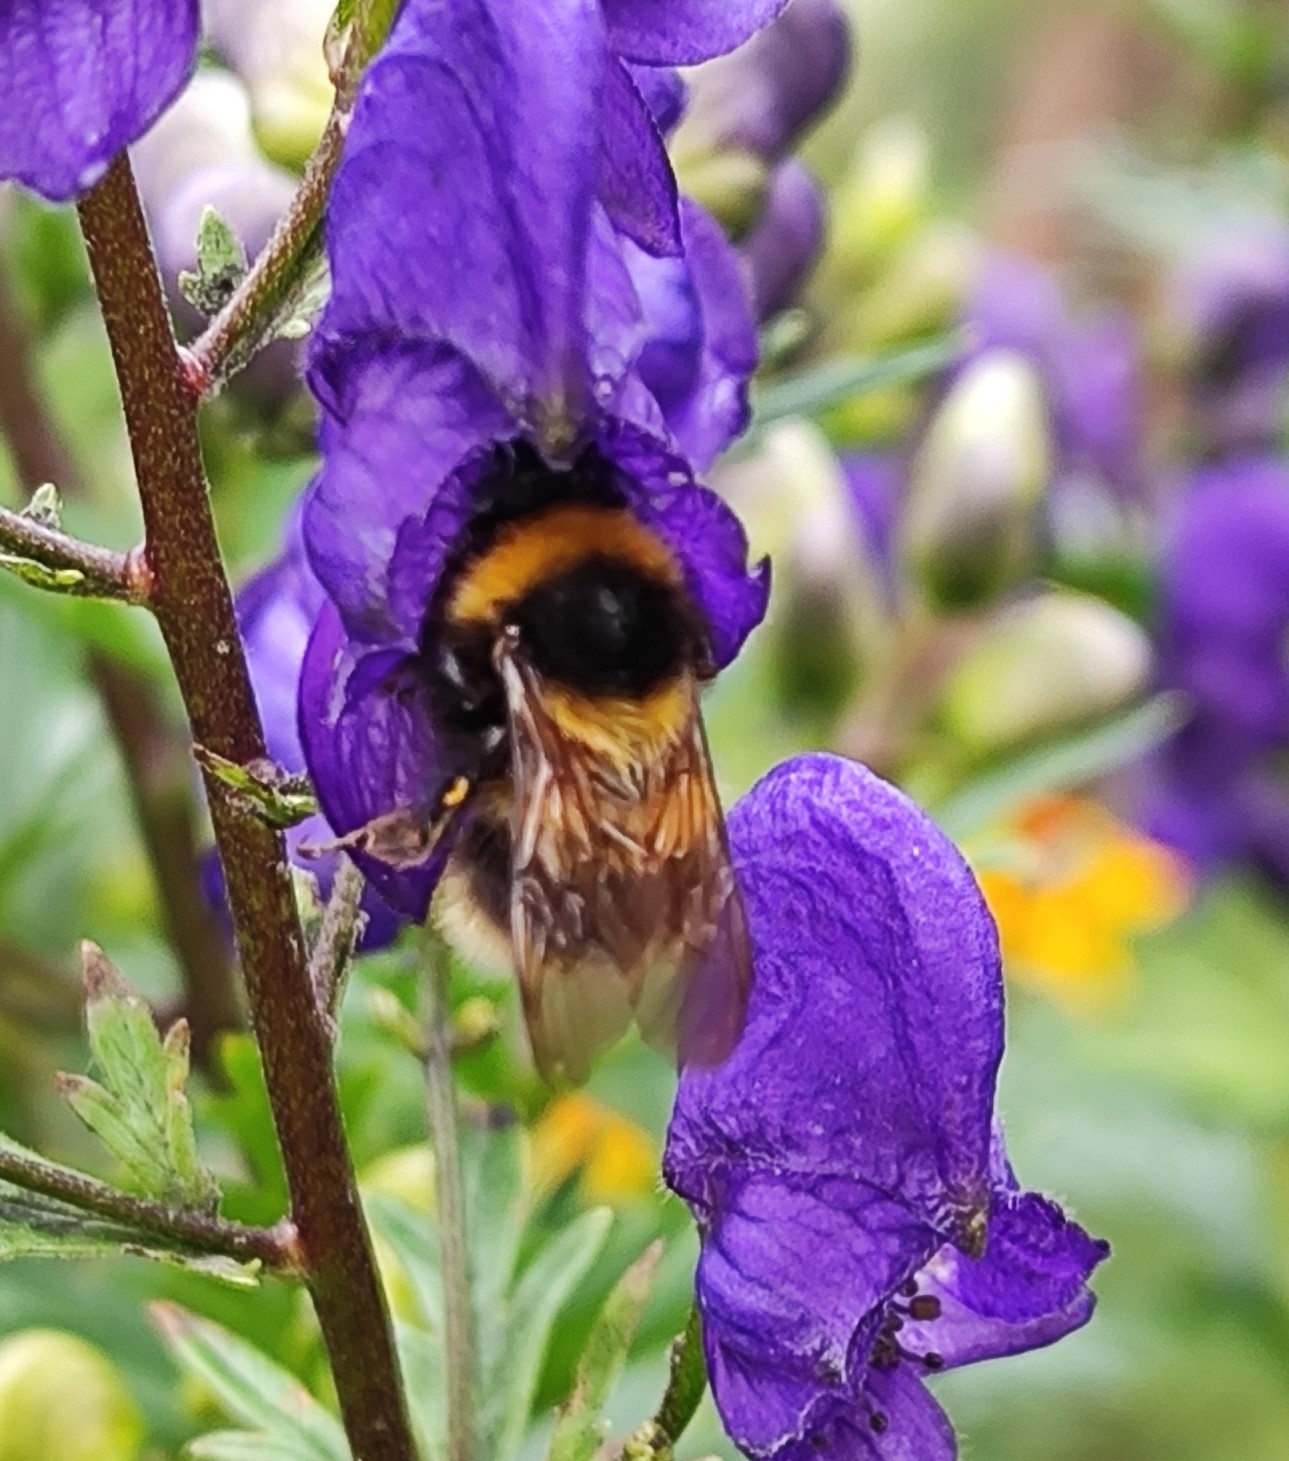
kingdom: Animalia
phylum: Arthropoda
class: Insecta
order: Hymenoptera
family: Apidae
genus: Bombus
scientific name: Bombus hortorum
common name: Garden bumblebee
